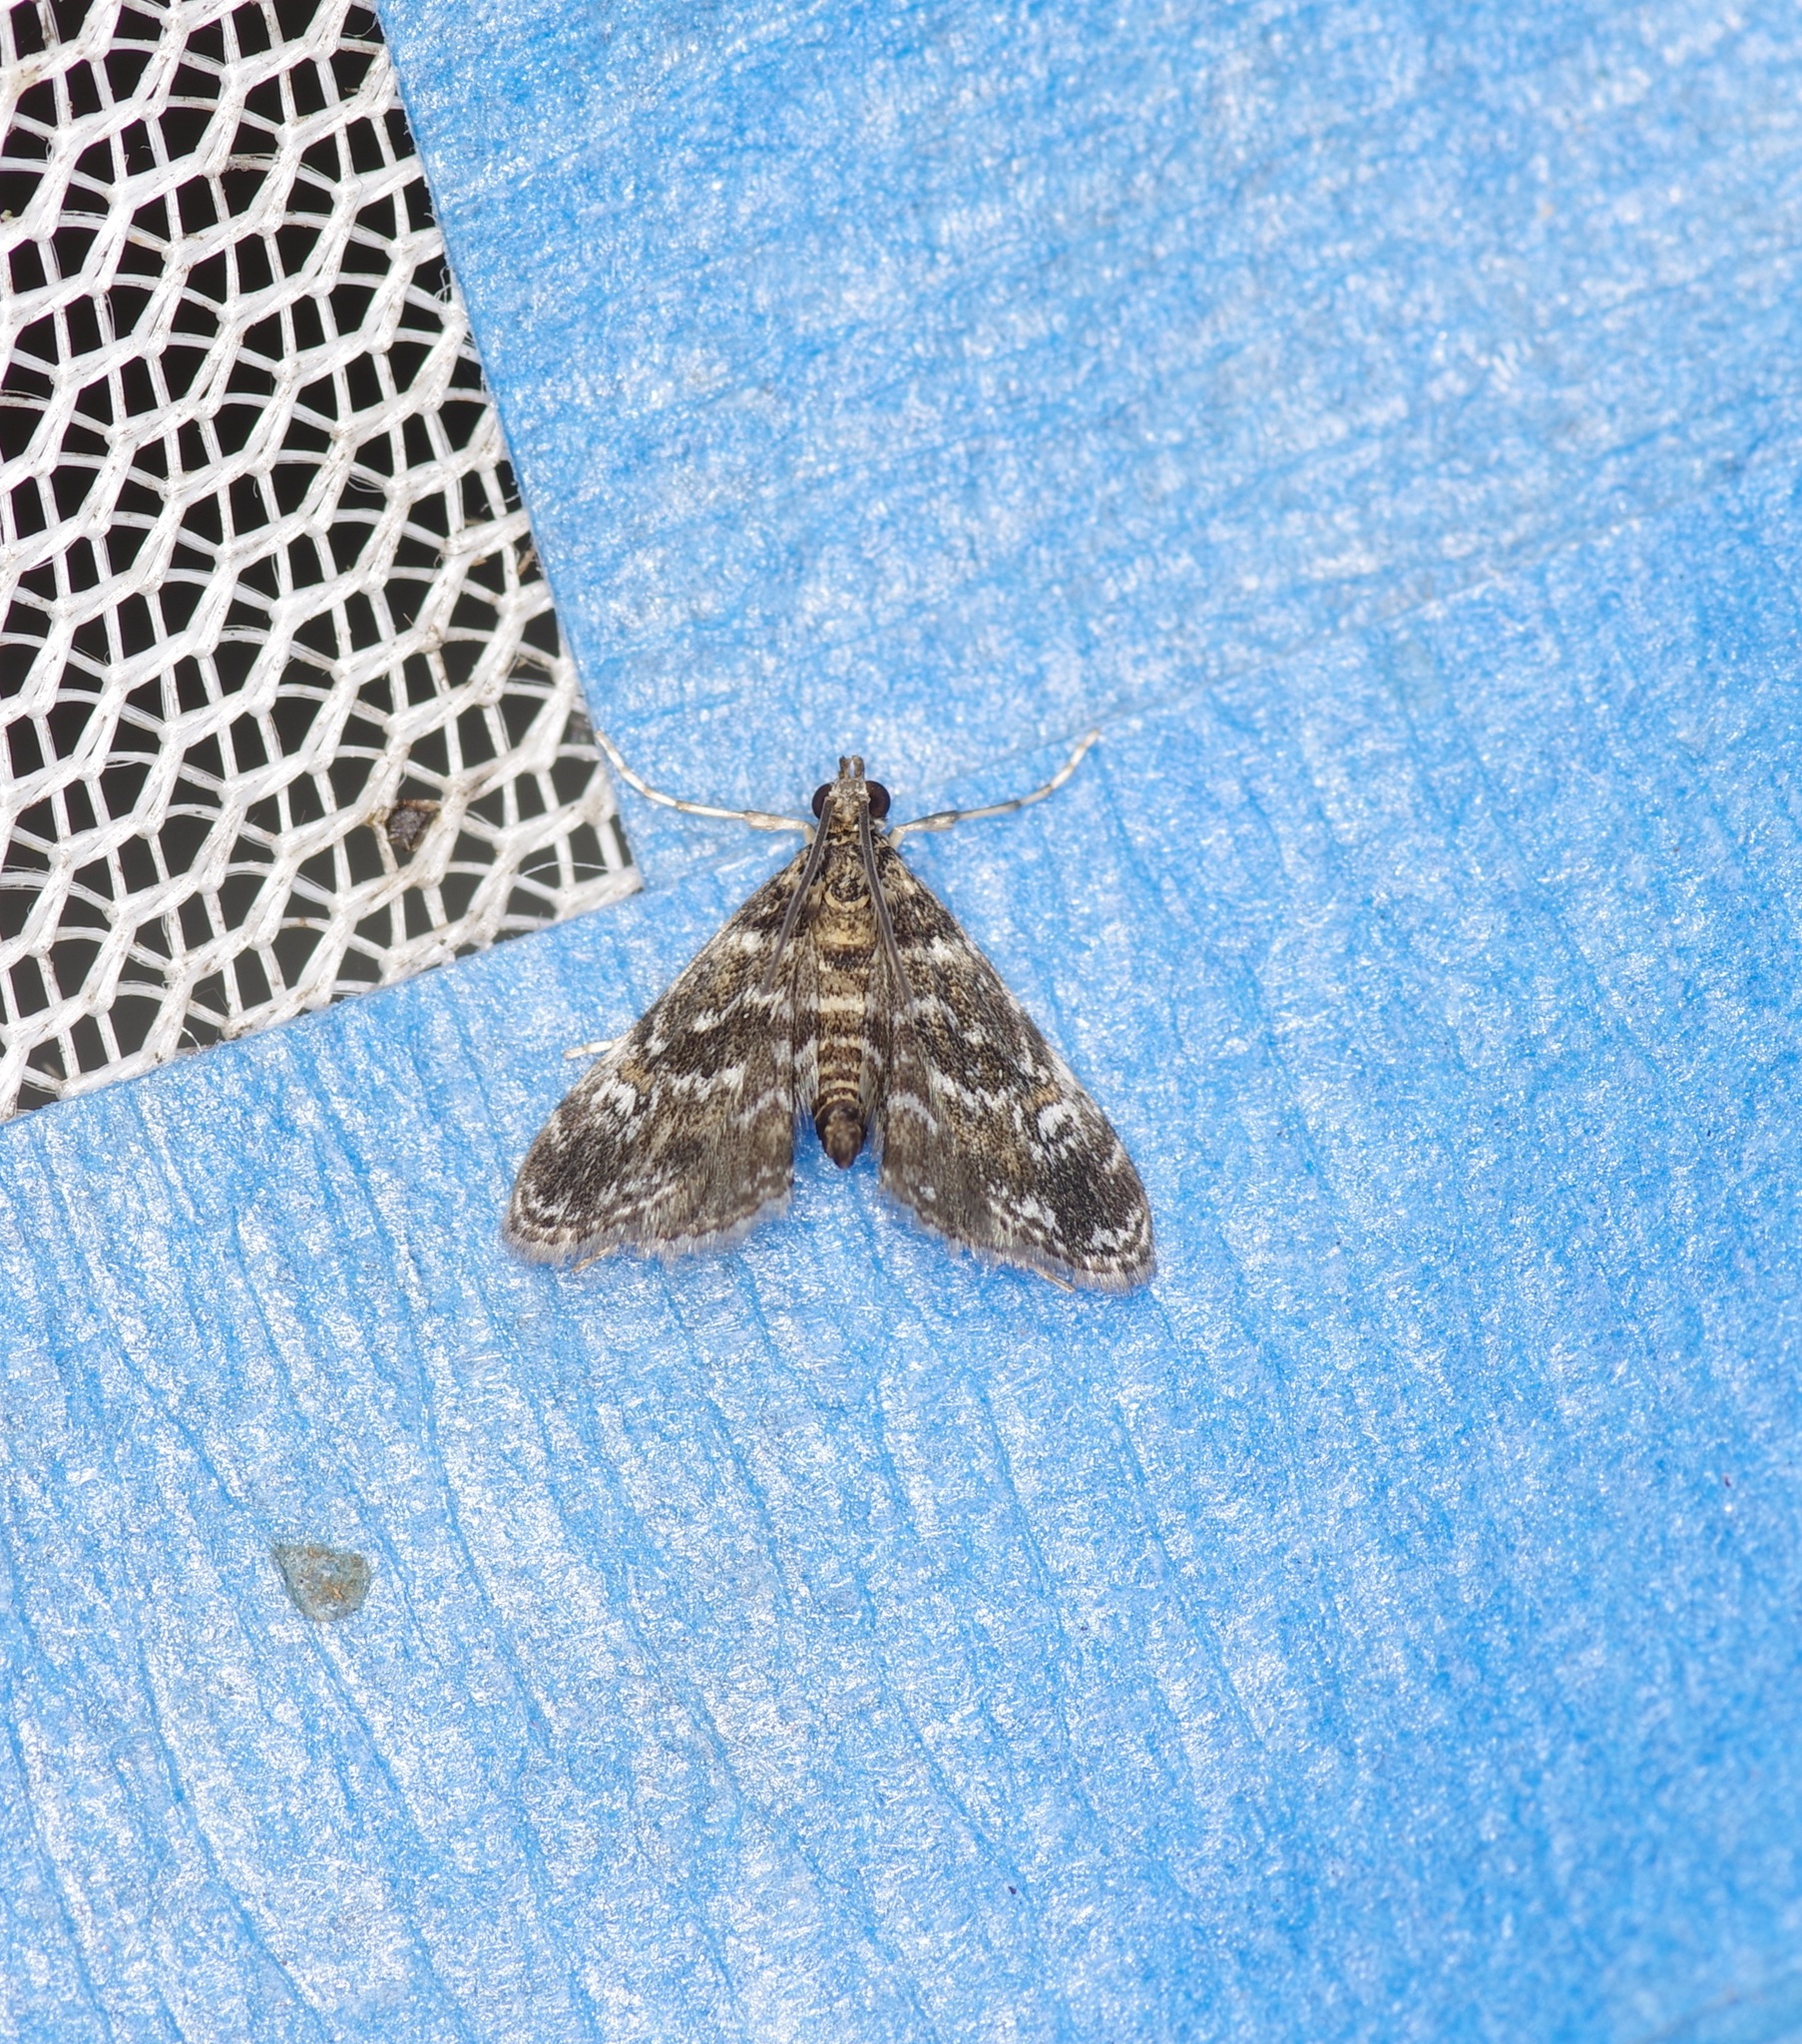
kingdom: Animalia
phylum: Arthropoda
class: Insecta
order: Lepidoptera
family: Crambidae
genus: Elophila
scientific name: Elophila obliteralis
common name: Waterlily leafcutter moth
